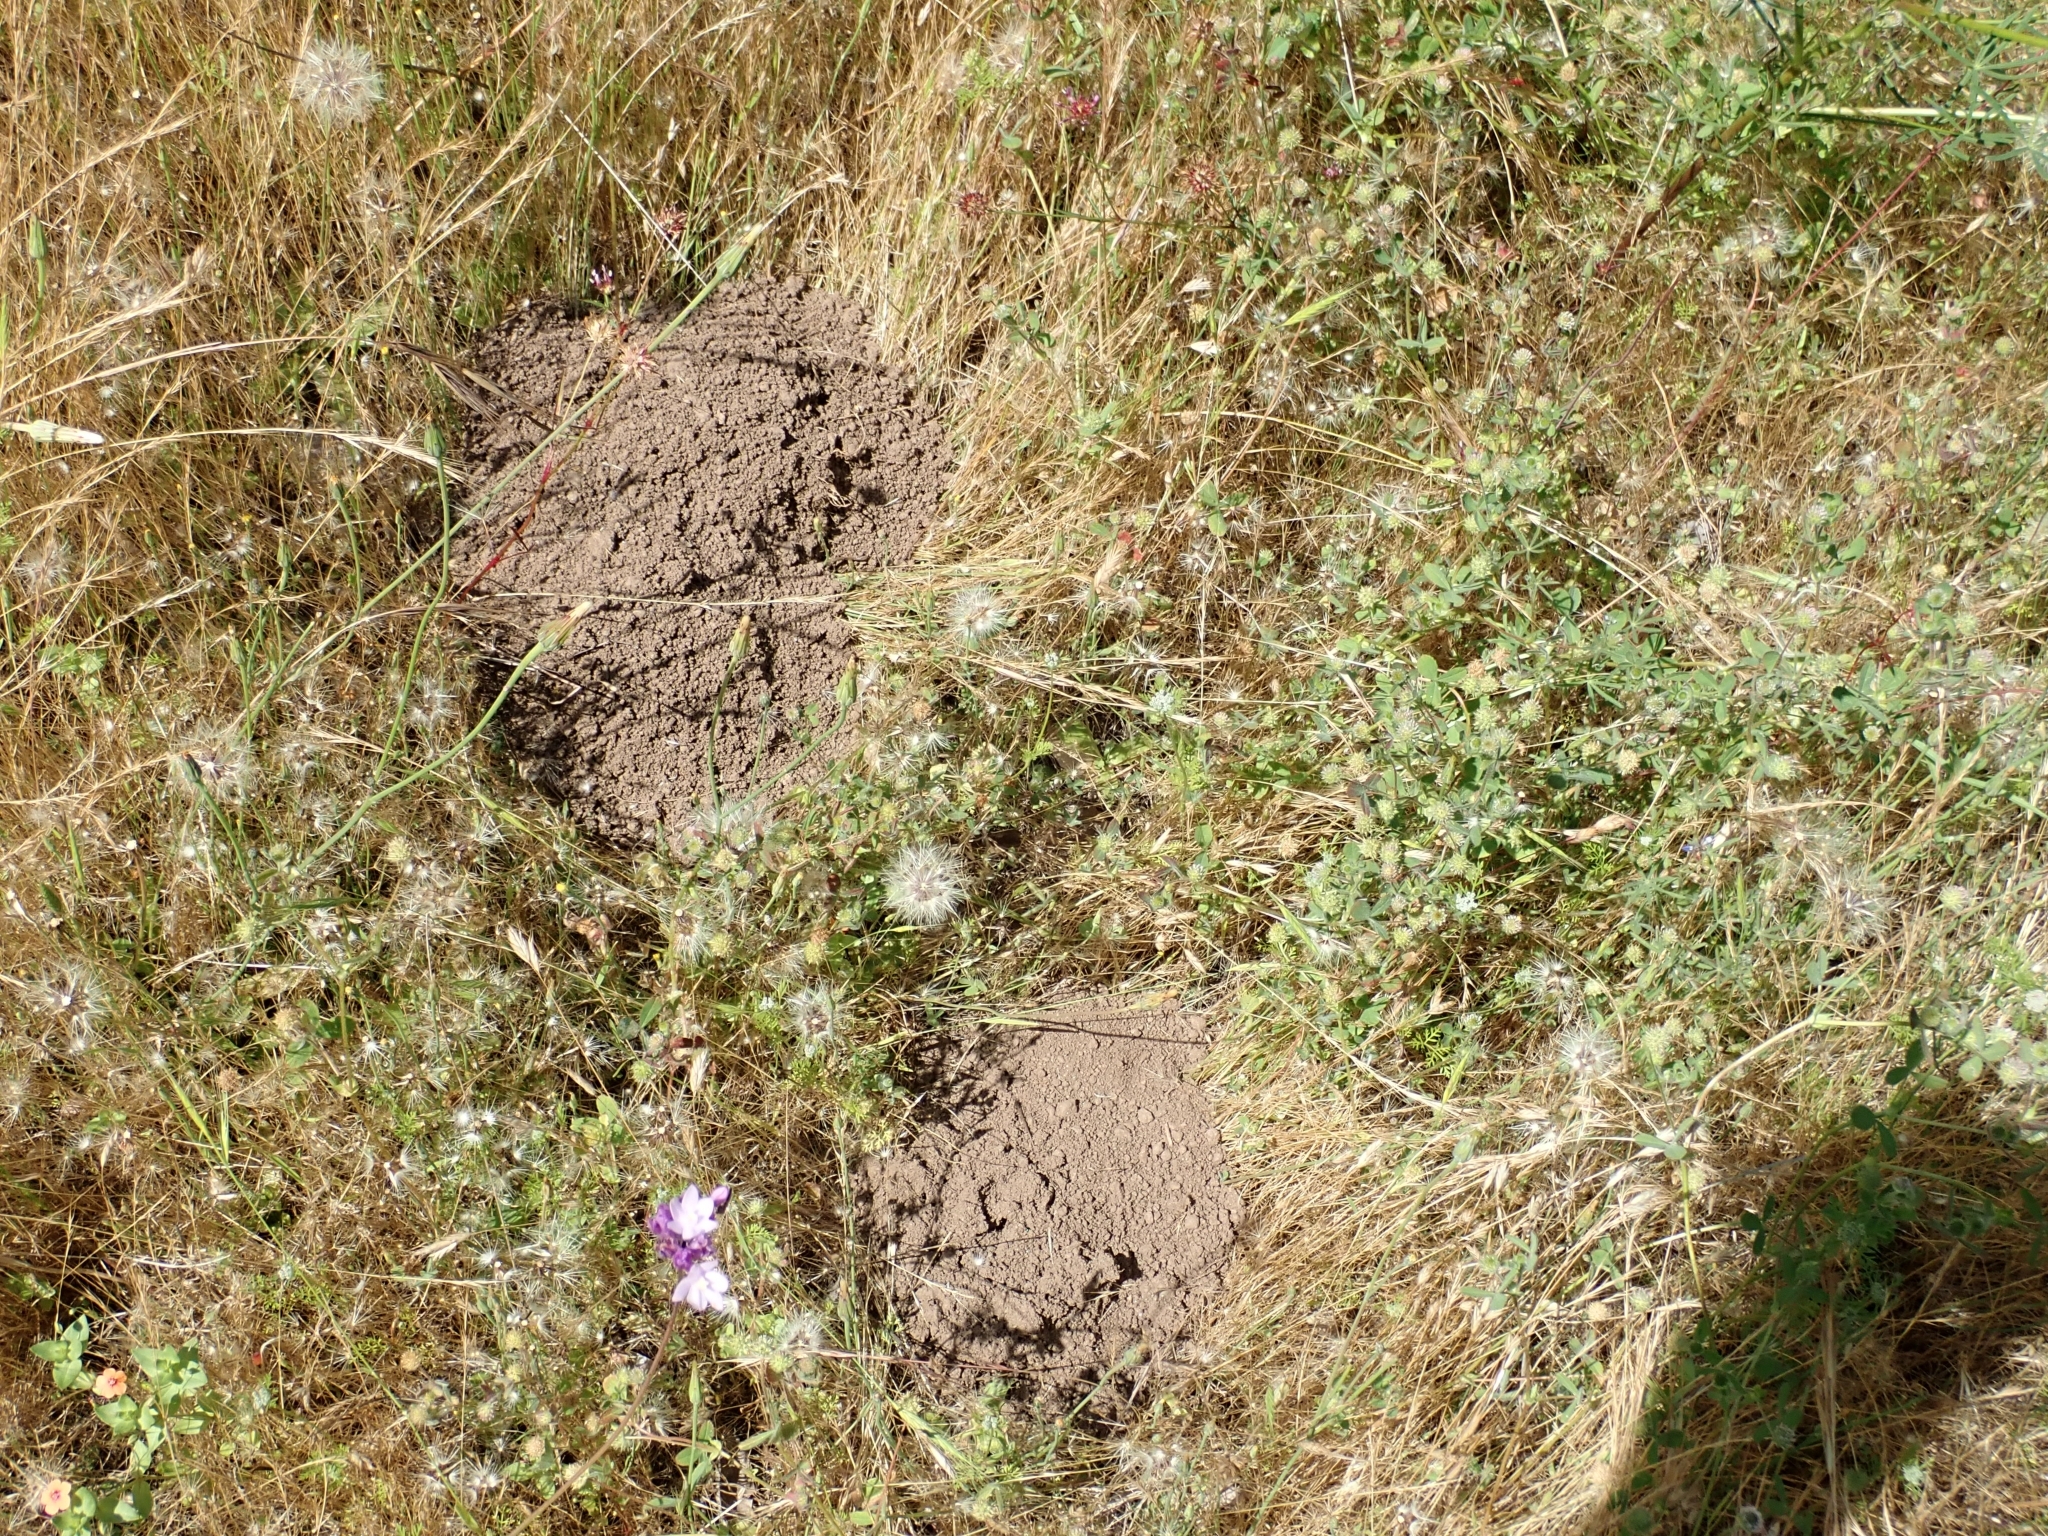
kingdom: Animalia
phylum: Chordata
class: Mammalia
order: Rodentia
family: Geomyidae
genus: Thomomys
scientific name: Thomomys bottae
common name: Botta's pocket gopher
